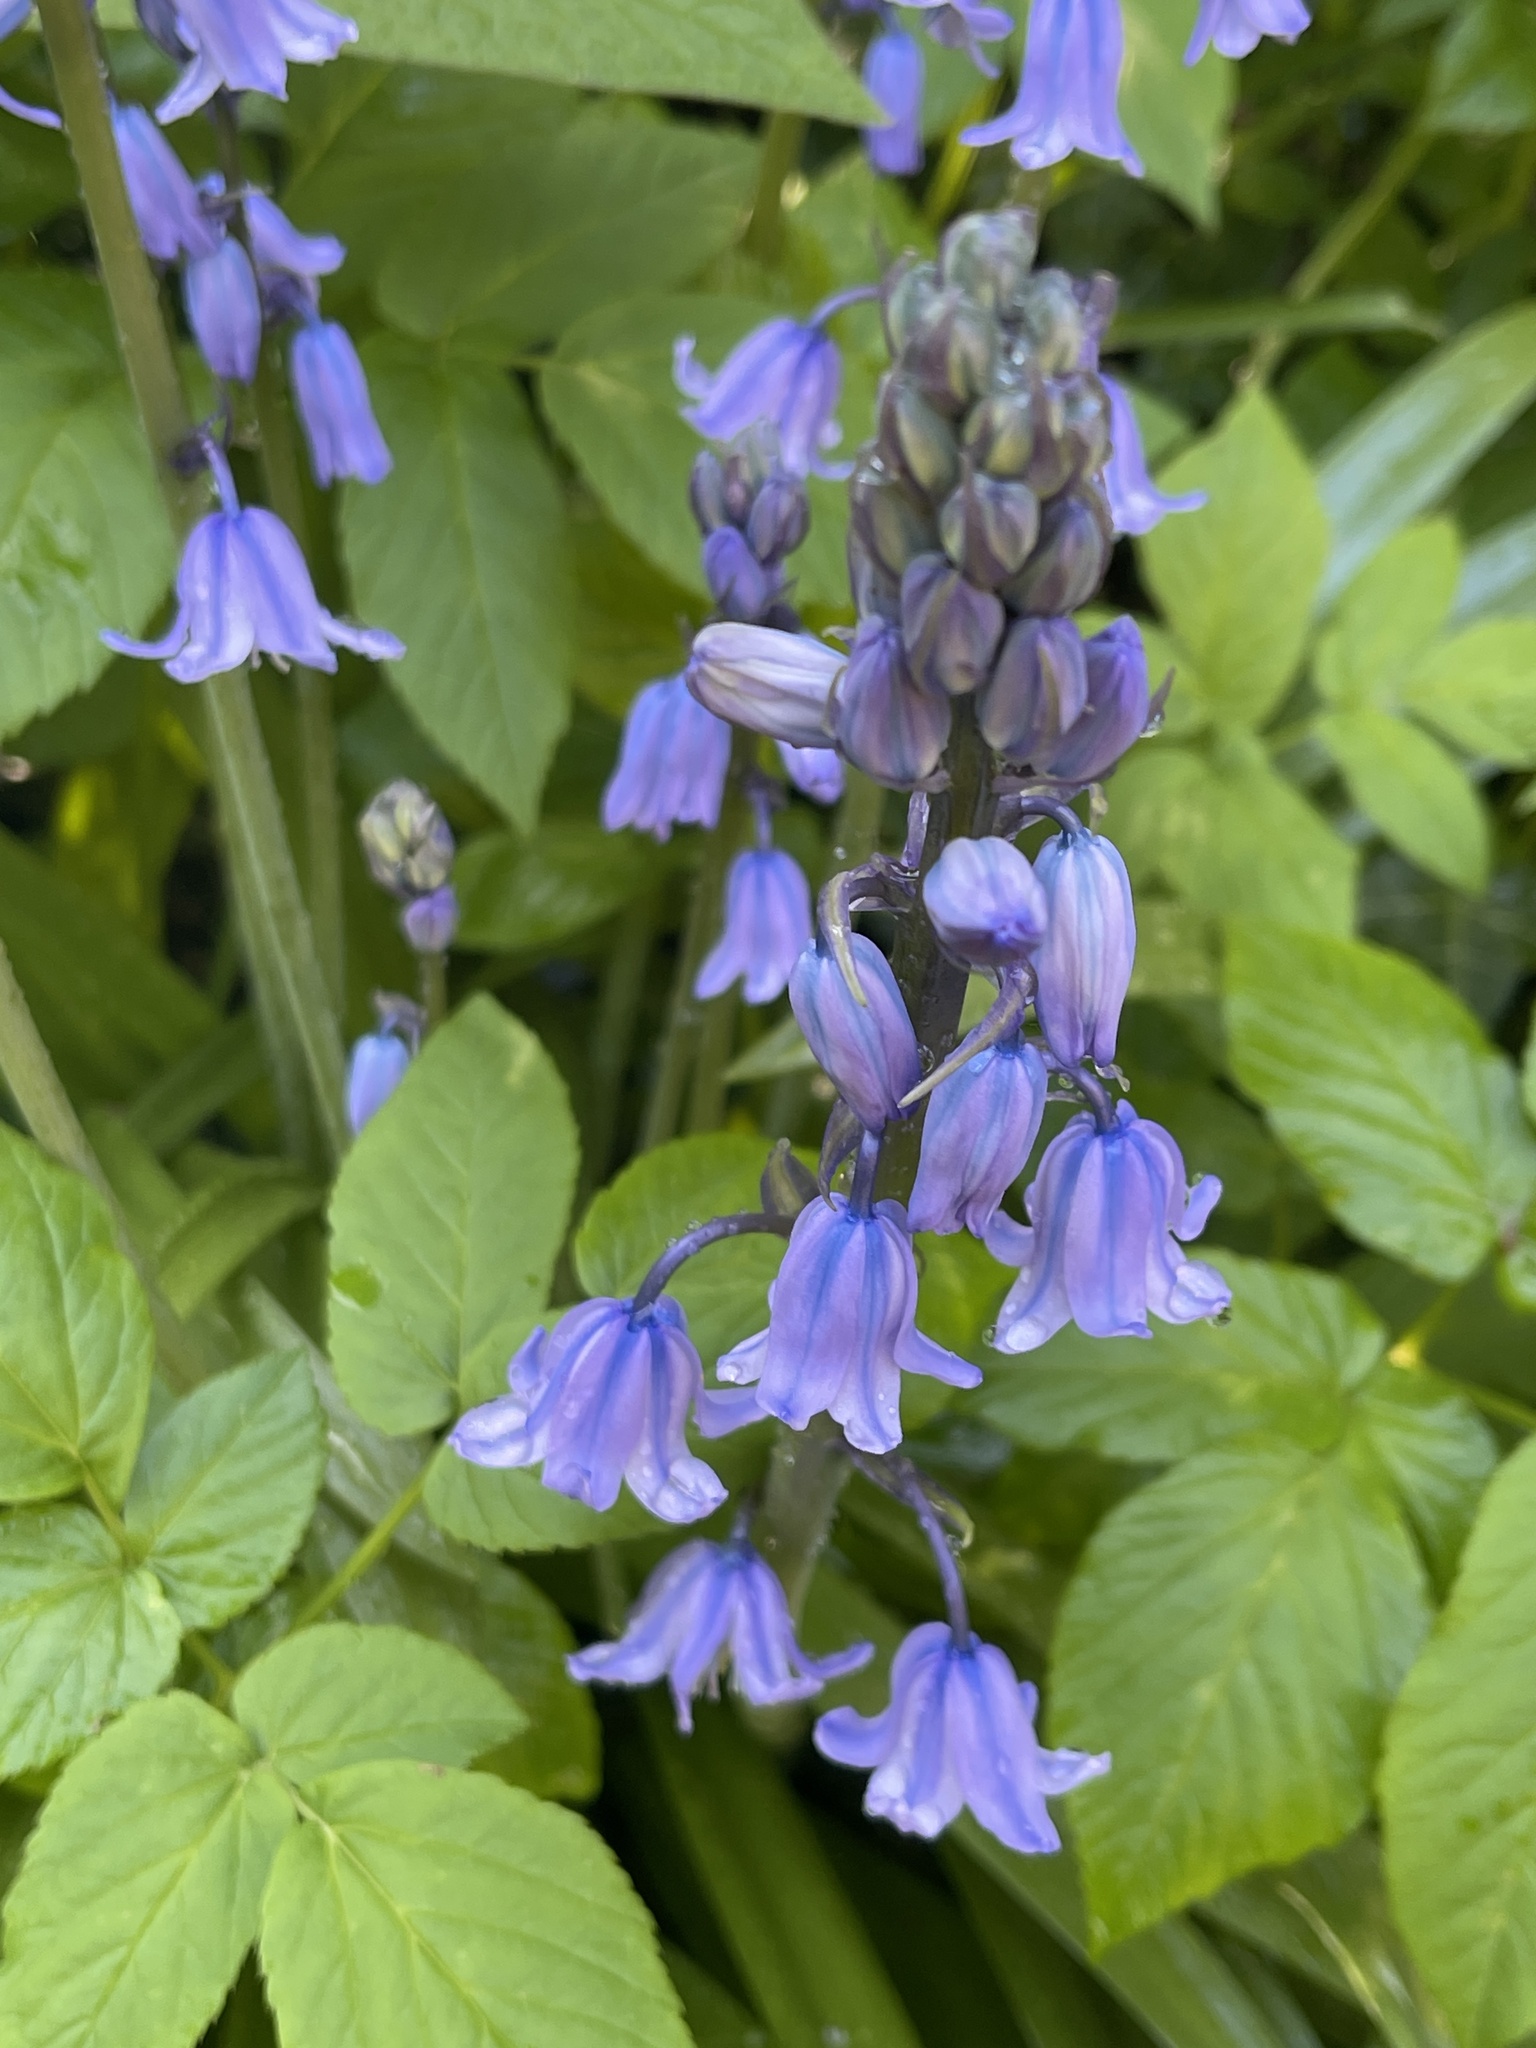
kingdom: Plantae
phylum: Tracheophyta
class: Liliopsida
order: Asparagales
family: Asparagaceae
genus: Hyacinthoides
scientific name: Hyacinthoides massartiana
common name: Hyacinthoides
